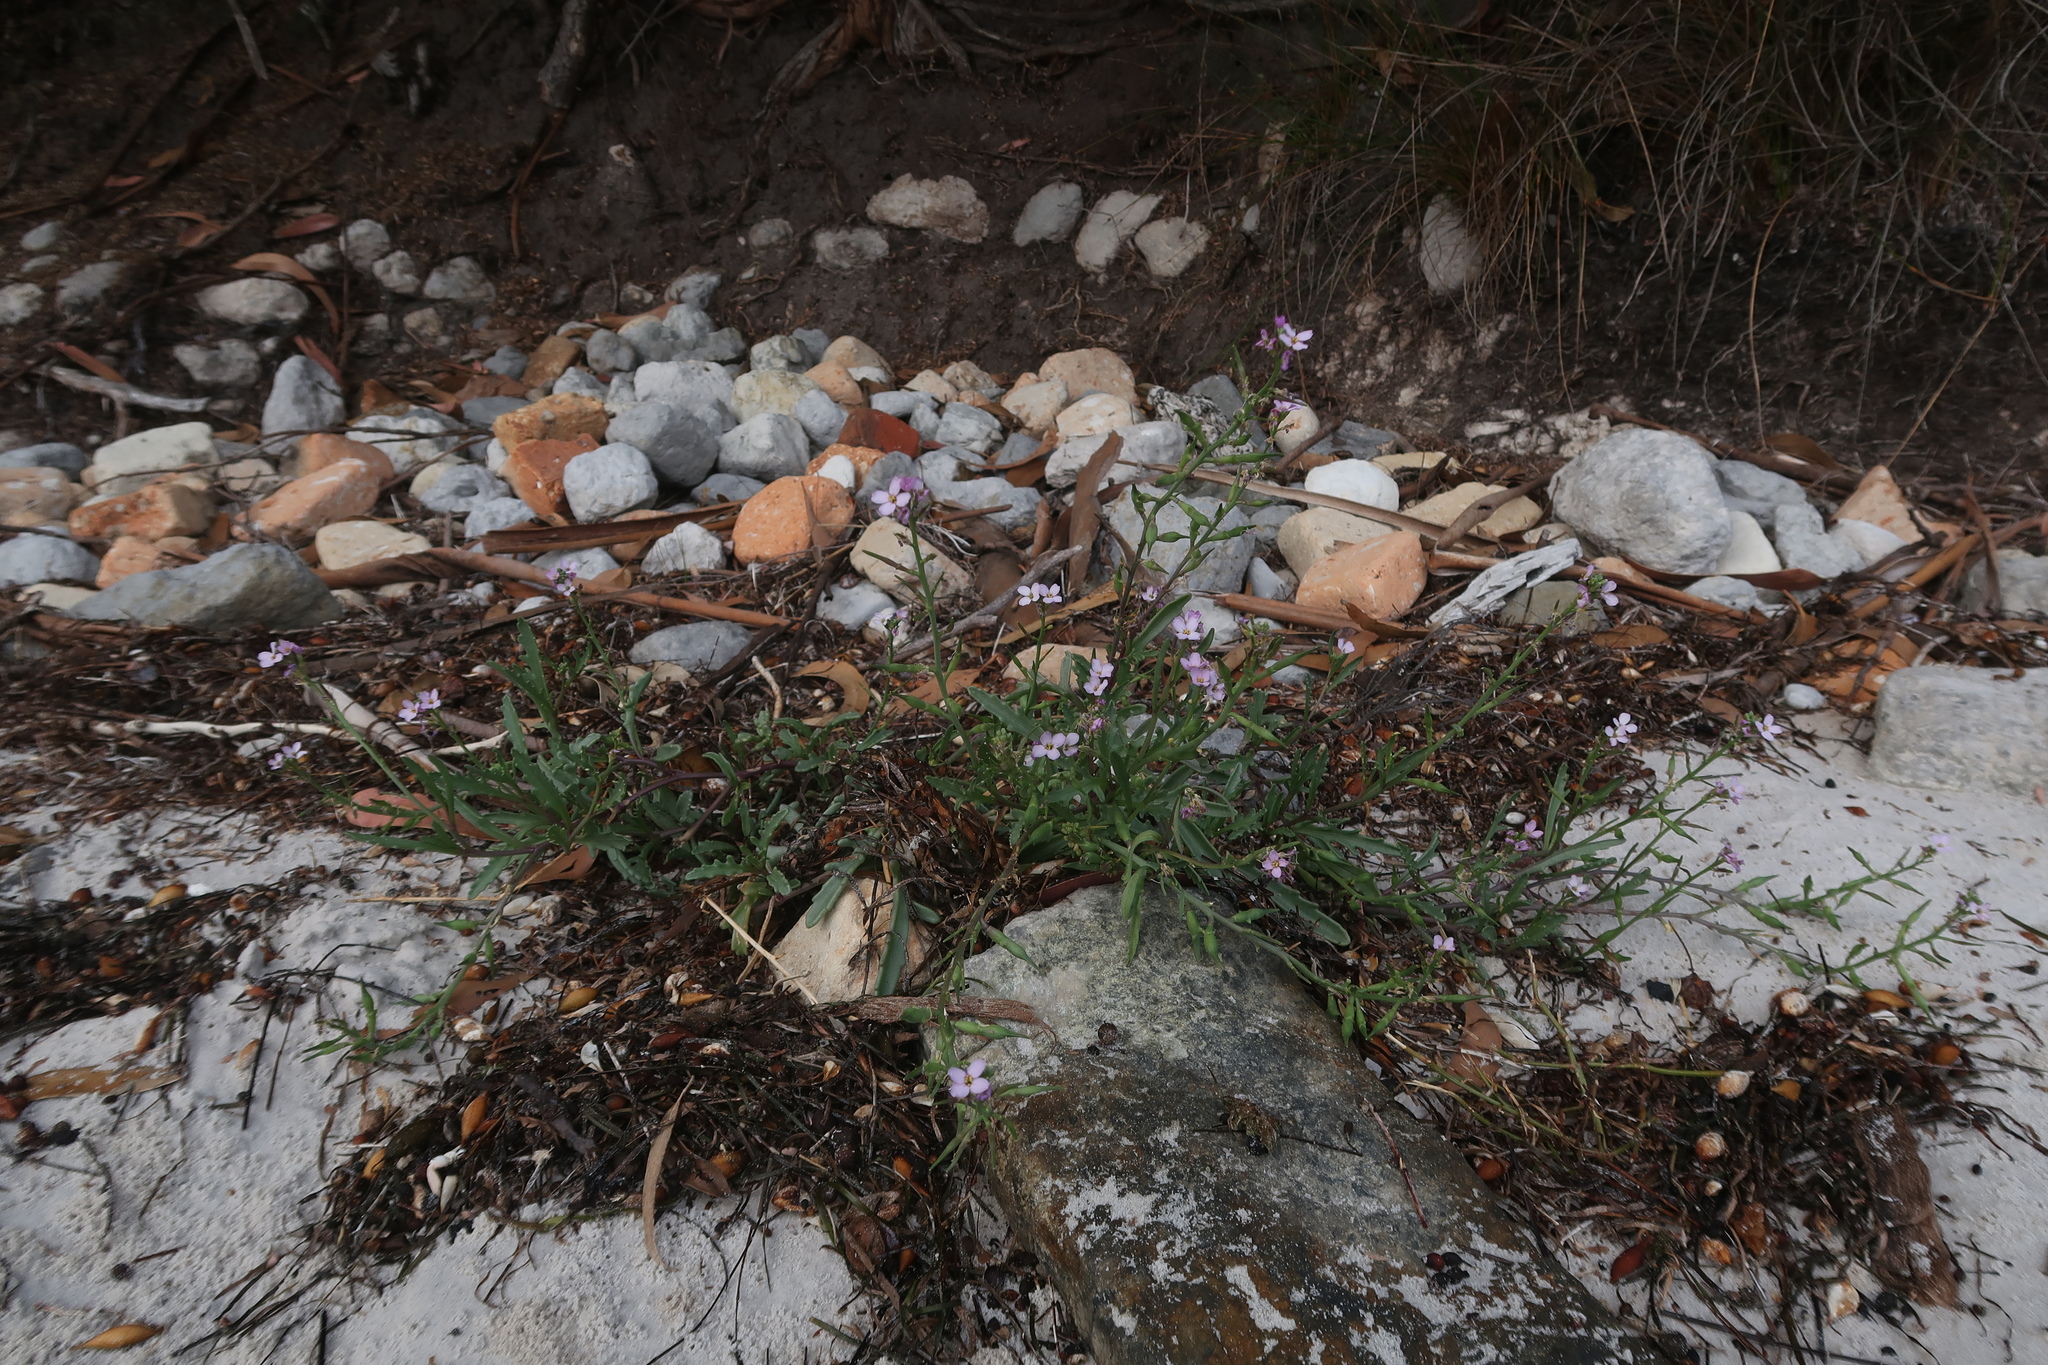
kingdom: Plantae
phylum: Tracheophyta
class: Magnoliopsida
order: Brassicales
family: Brassicaceae
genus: Cakile
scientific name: Cakile maritima
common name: Sea rocket
